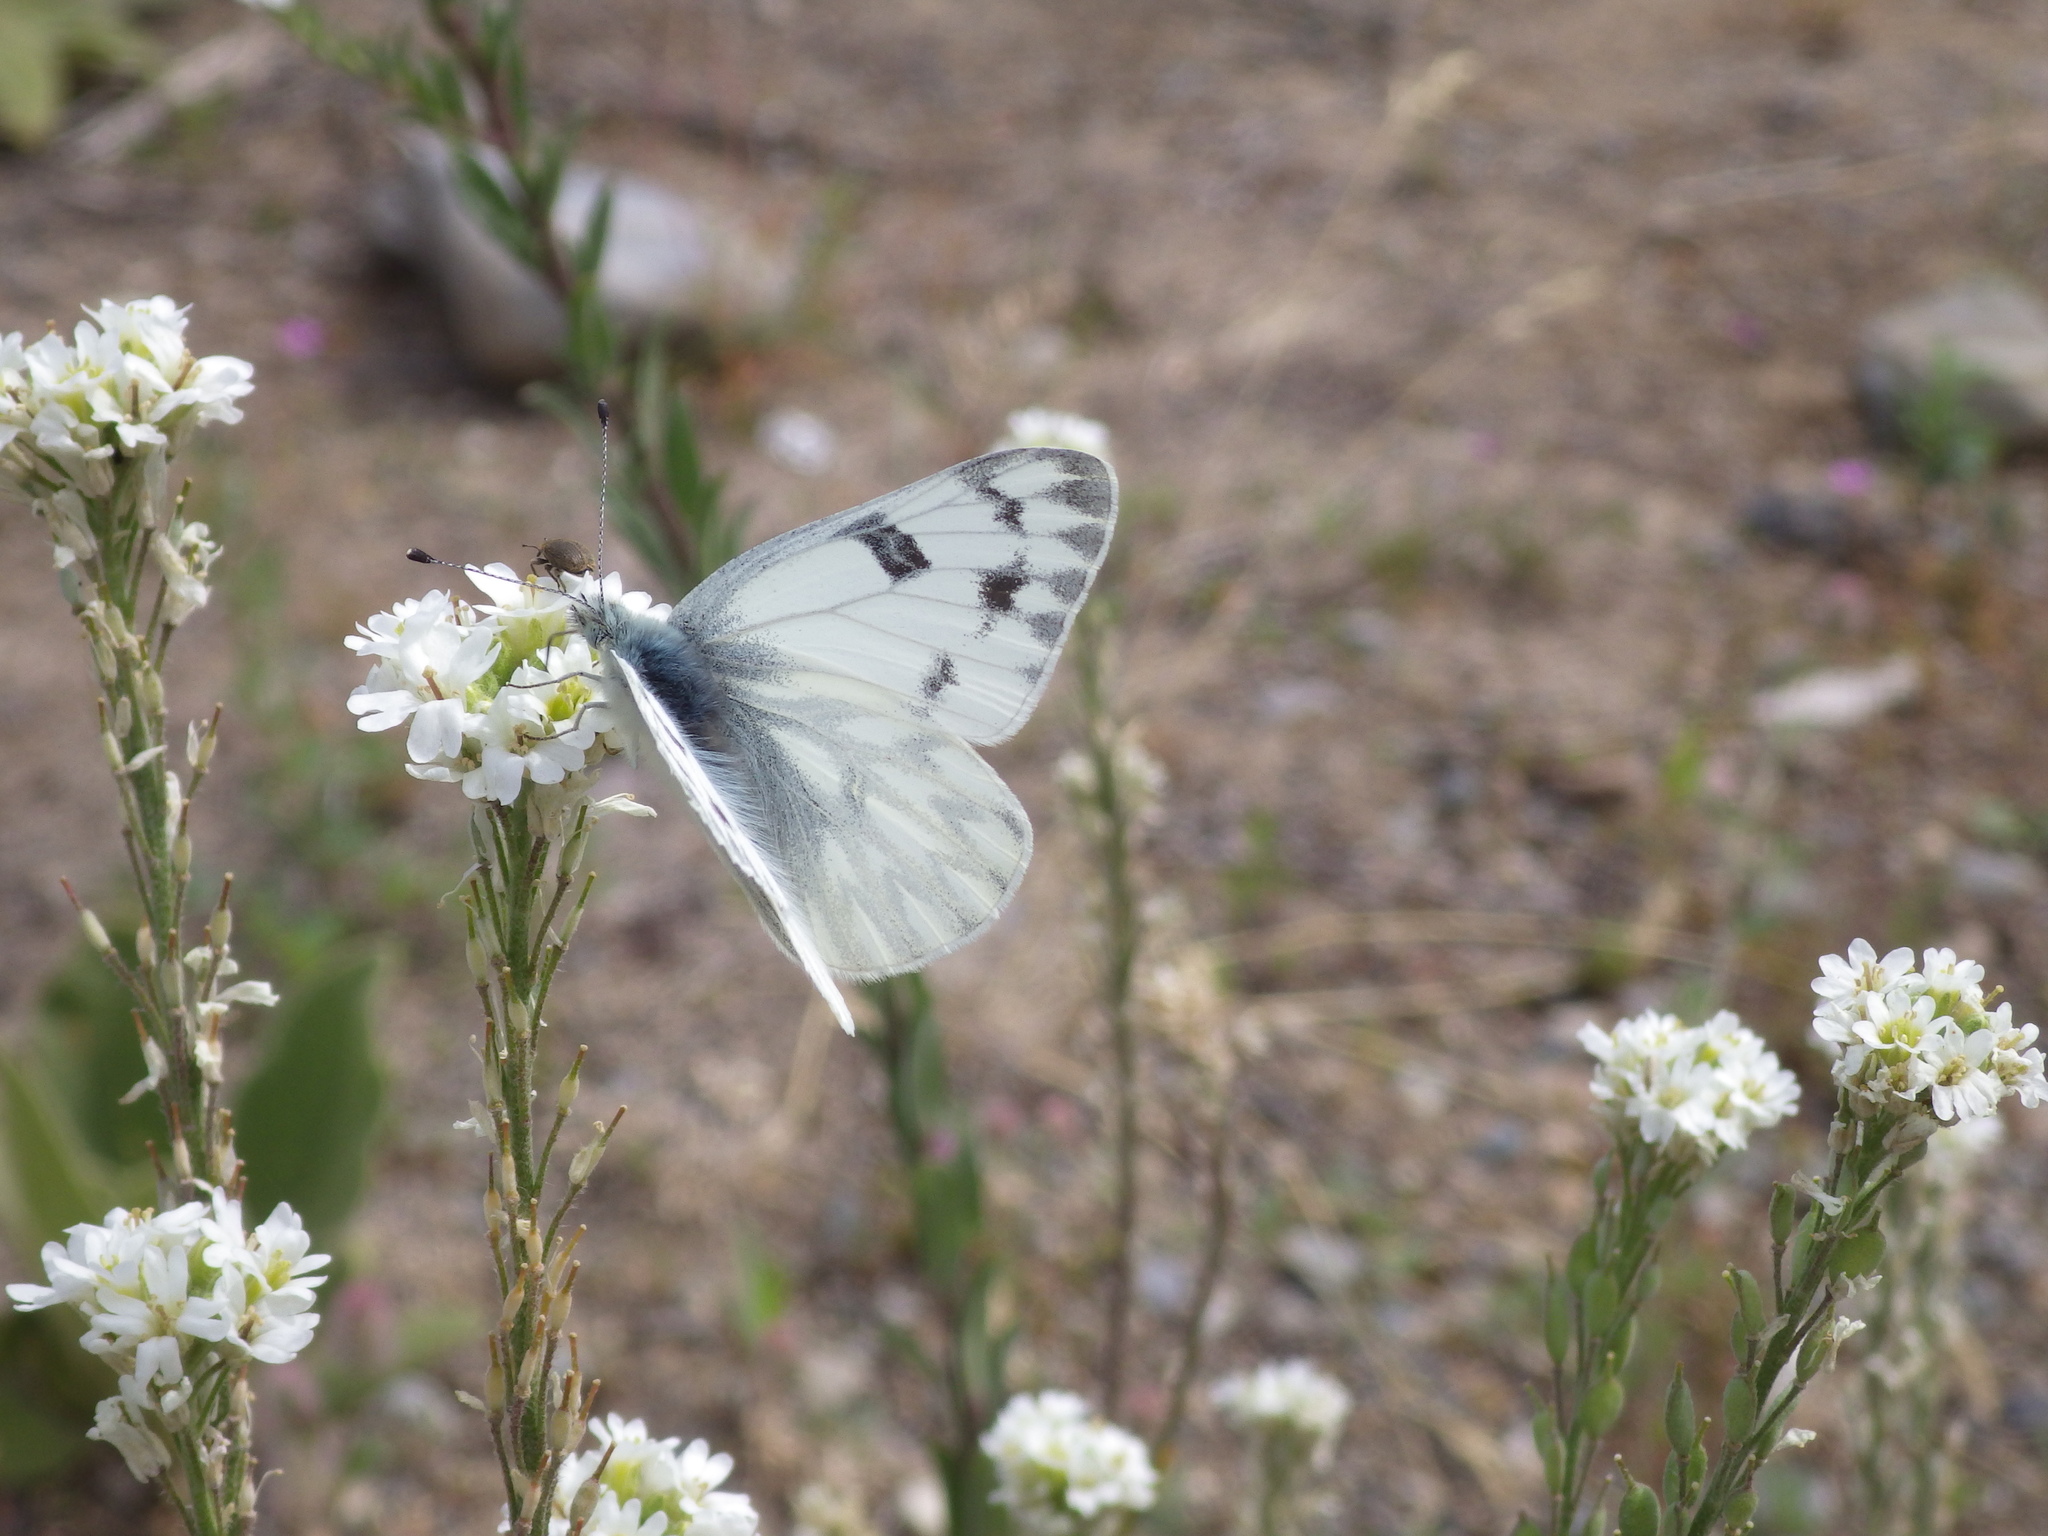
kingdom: Animalia
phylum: Arthropoda
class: Insecta
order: Lepidoptera
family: Pieridae
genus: Pontia
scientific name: Pontia occidentalis
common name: Western white
